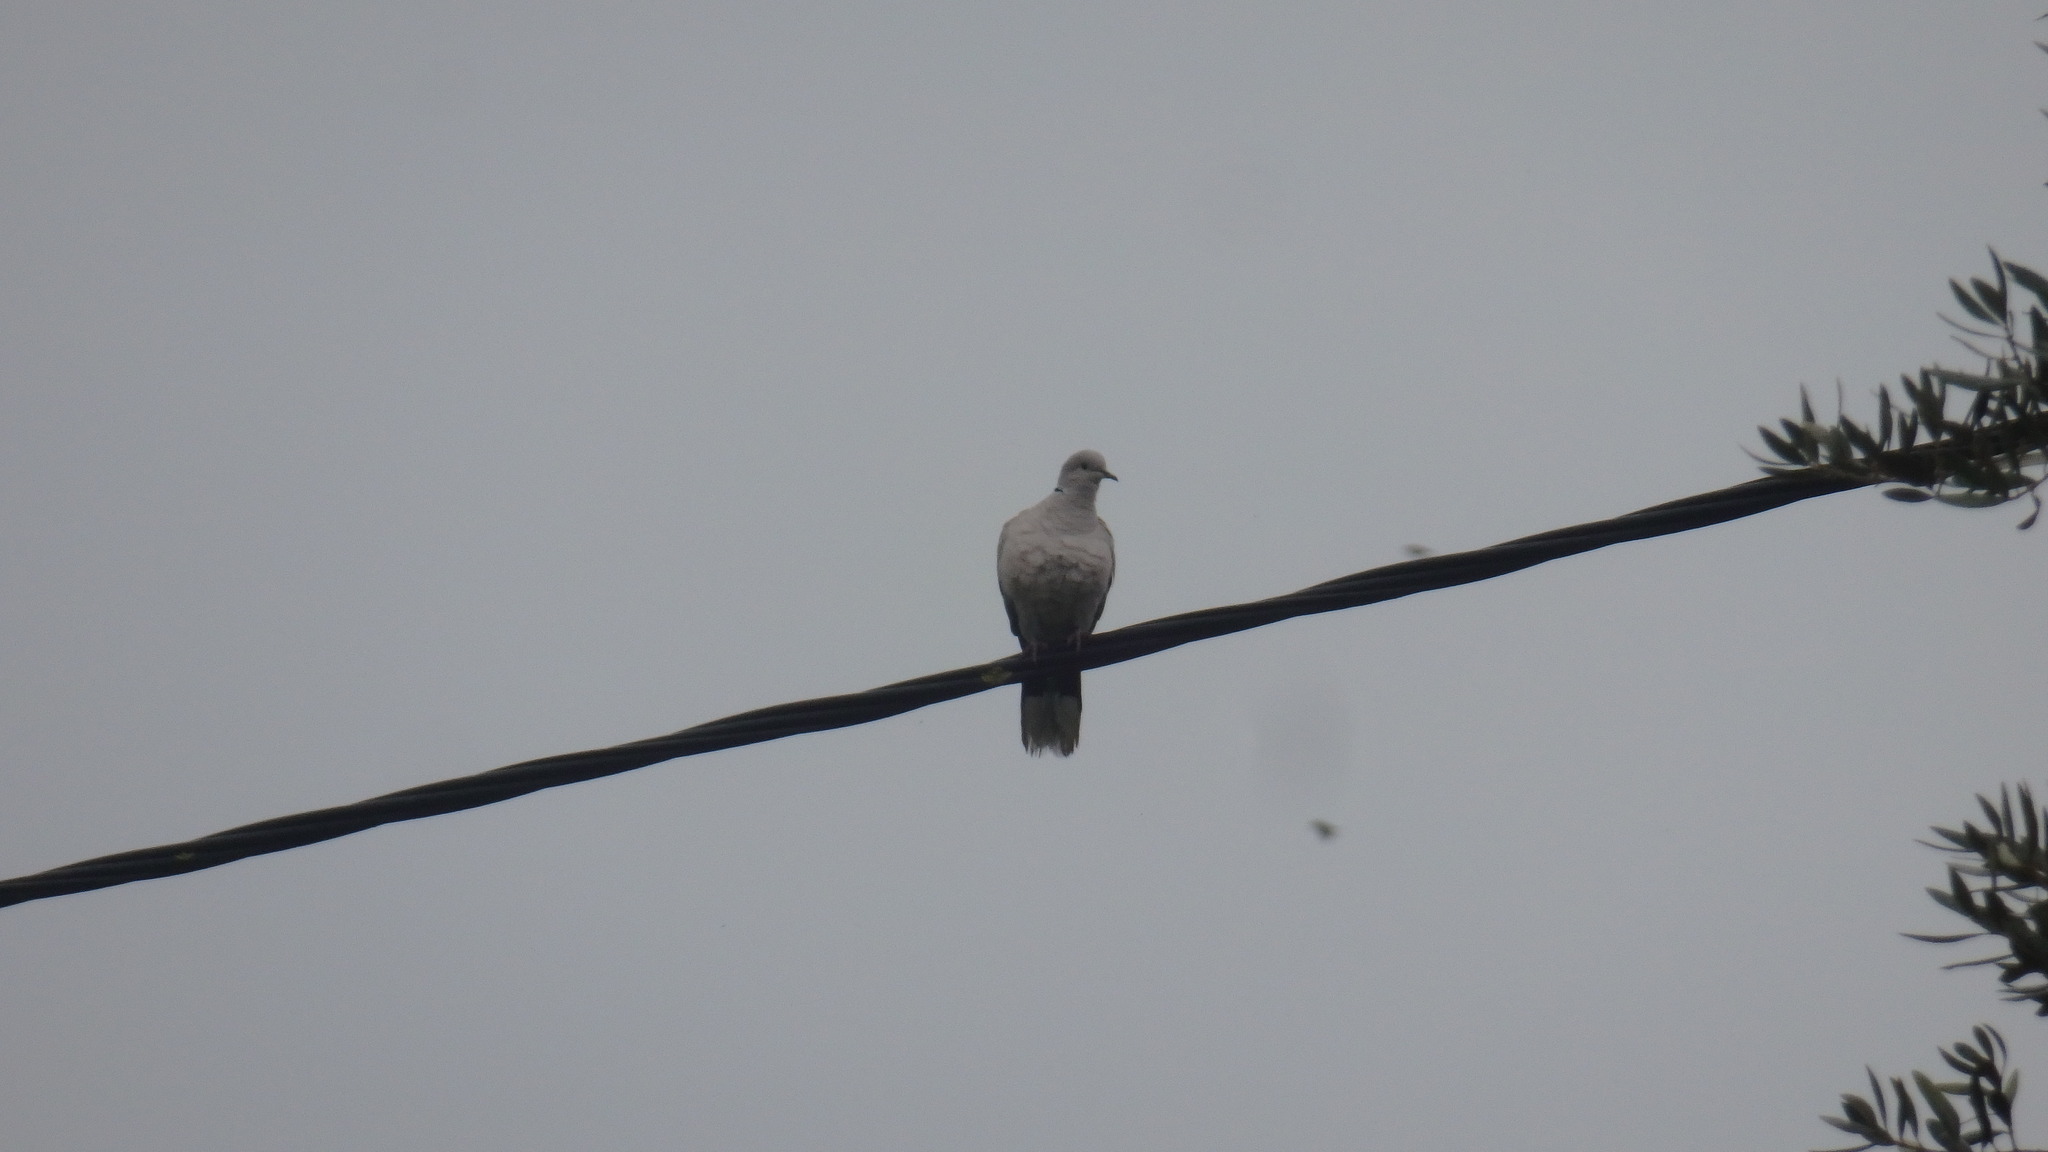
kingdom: Animalia
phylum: Chordata
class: Aves
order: Columbiformes
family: Columbidae
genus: Streptopelia
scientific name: Streptopelia decaocto
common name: Eurasian collared dove
